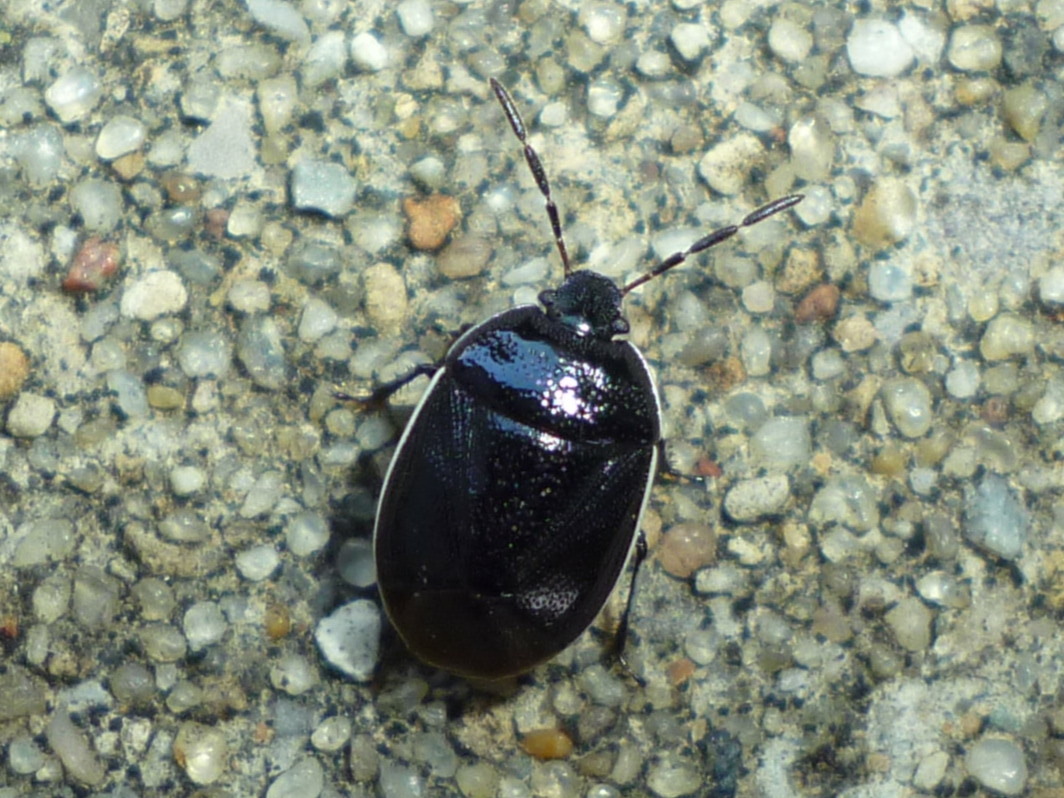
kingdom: Animalia
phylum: Arthropoda
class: Insecta
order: Hemiptera
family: Cydnidae
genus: Sehirus
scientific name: Sehirus cinctus
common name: White-margined burrower bug
